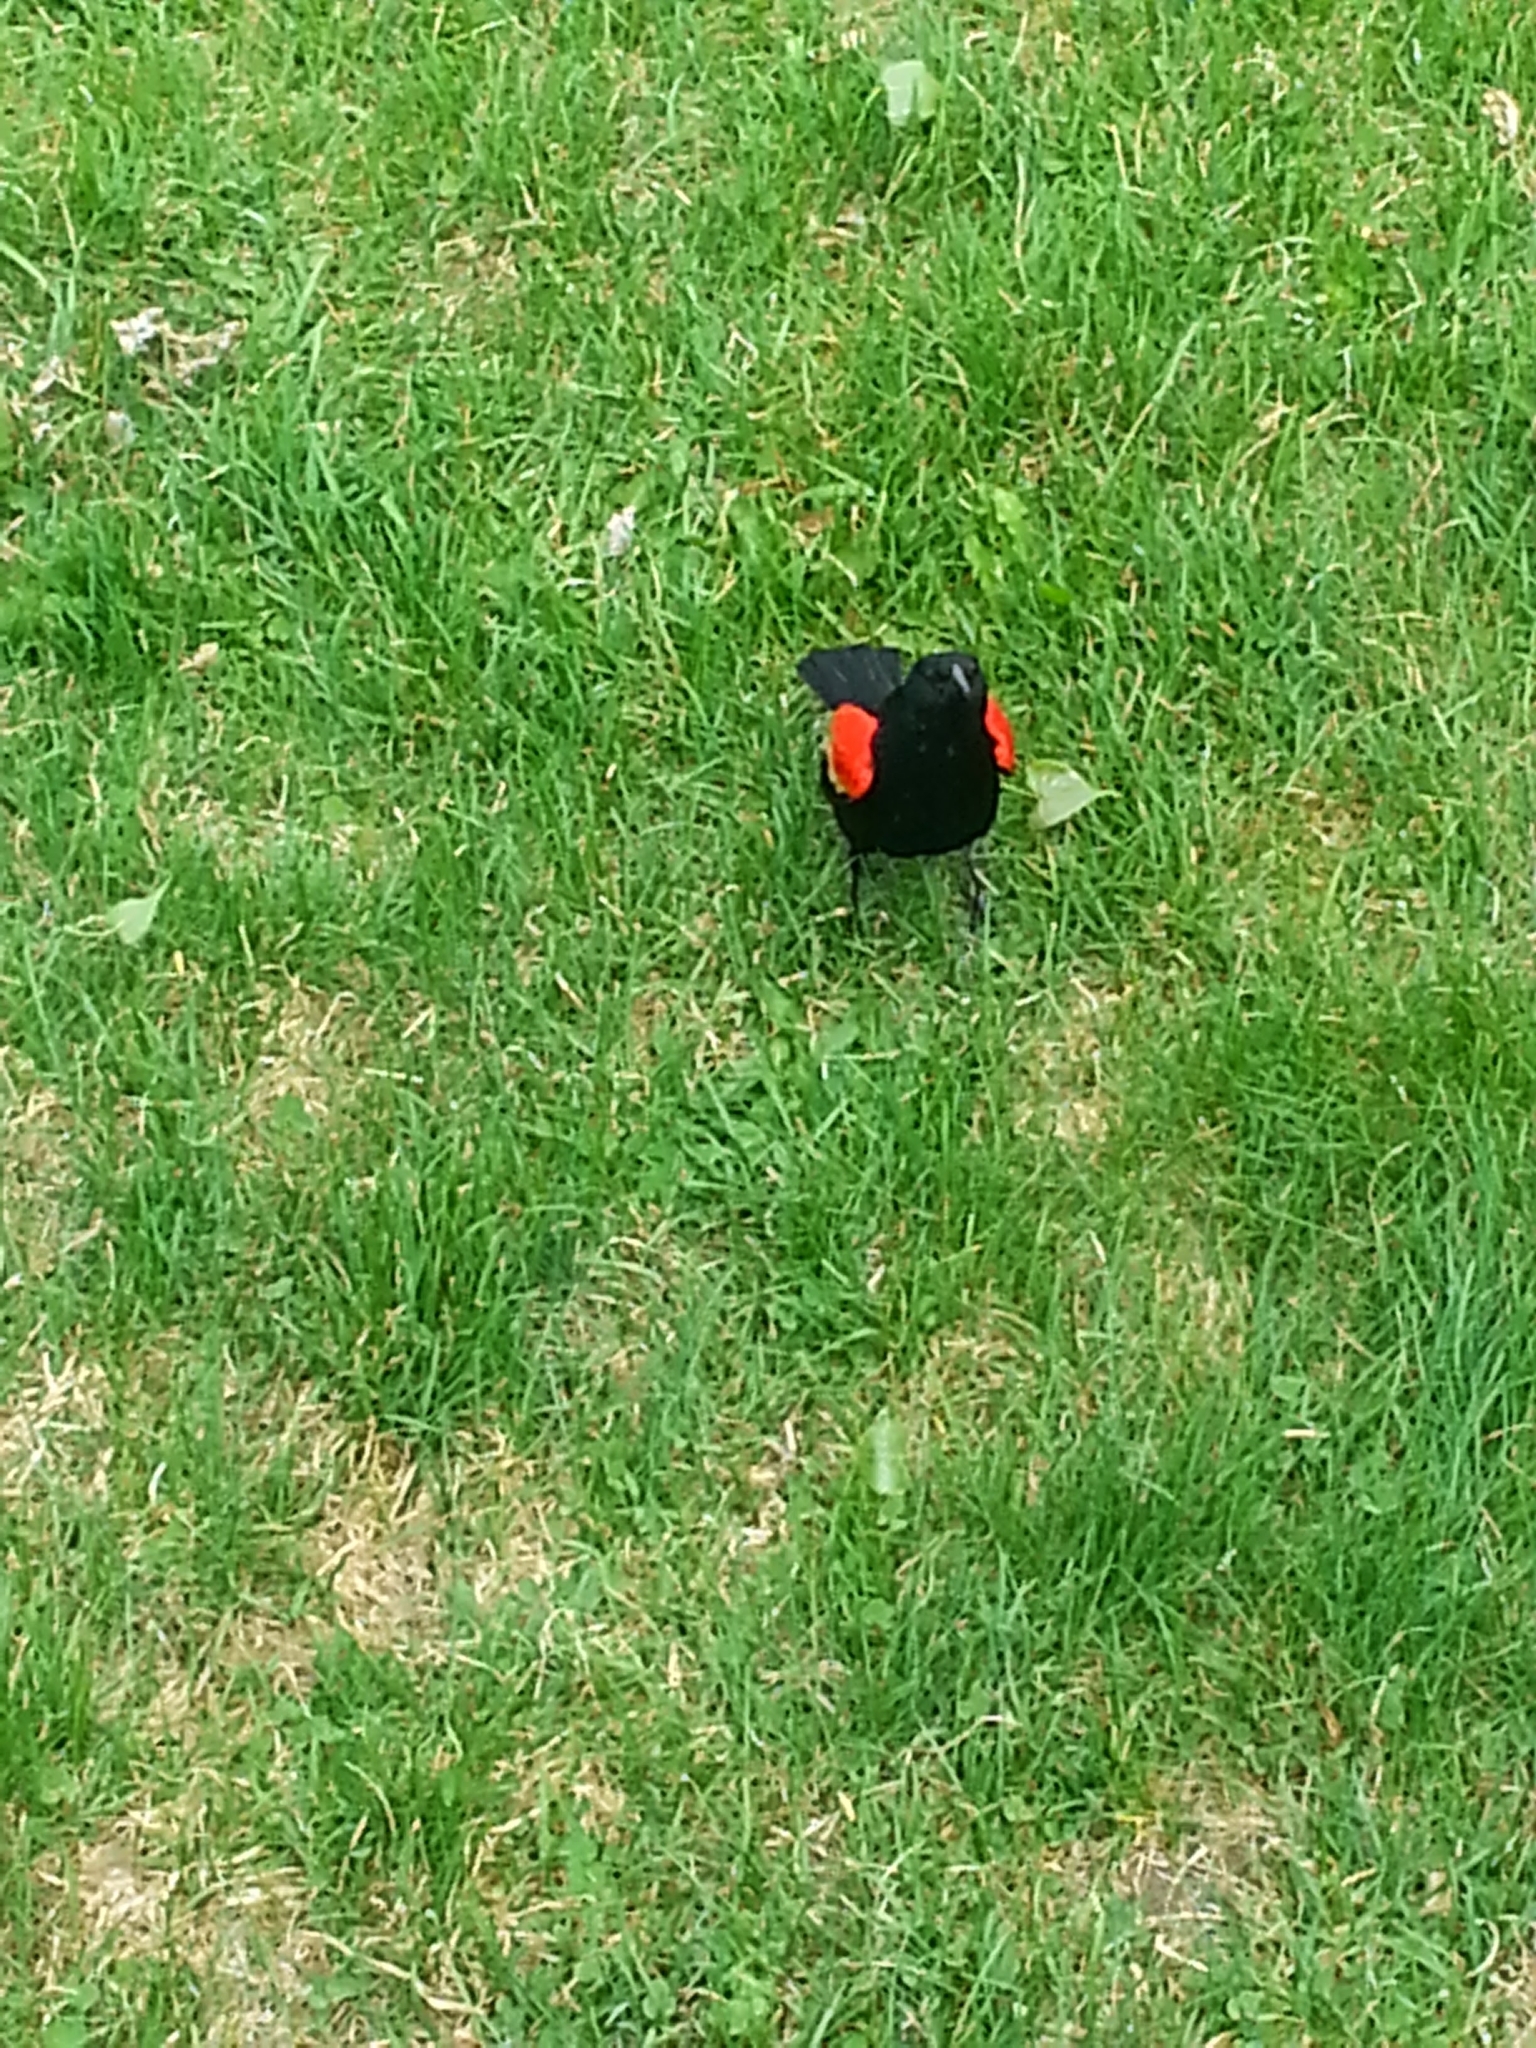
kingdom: Animalia
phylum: Chordata
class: Aves
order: Passeriformes
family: Icteridae
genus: Agelaius
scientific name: Agelaius phoeniceus
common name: Red-winged blackbird
